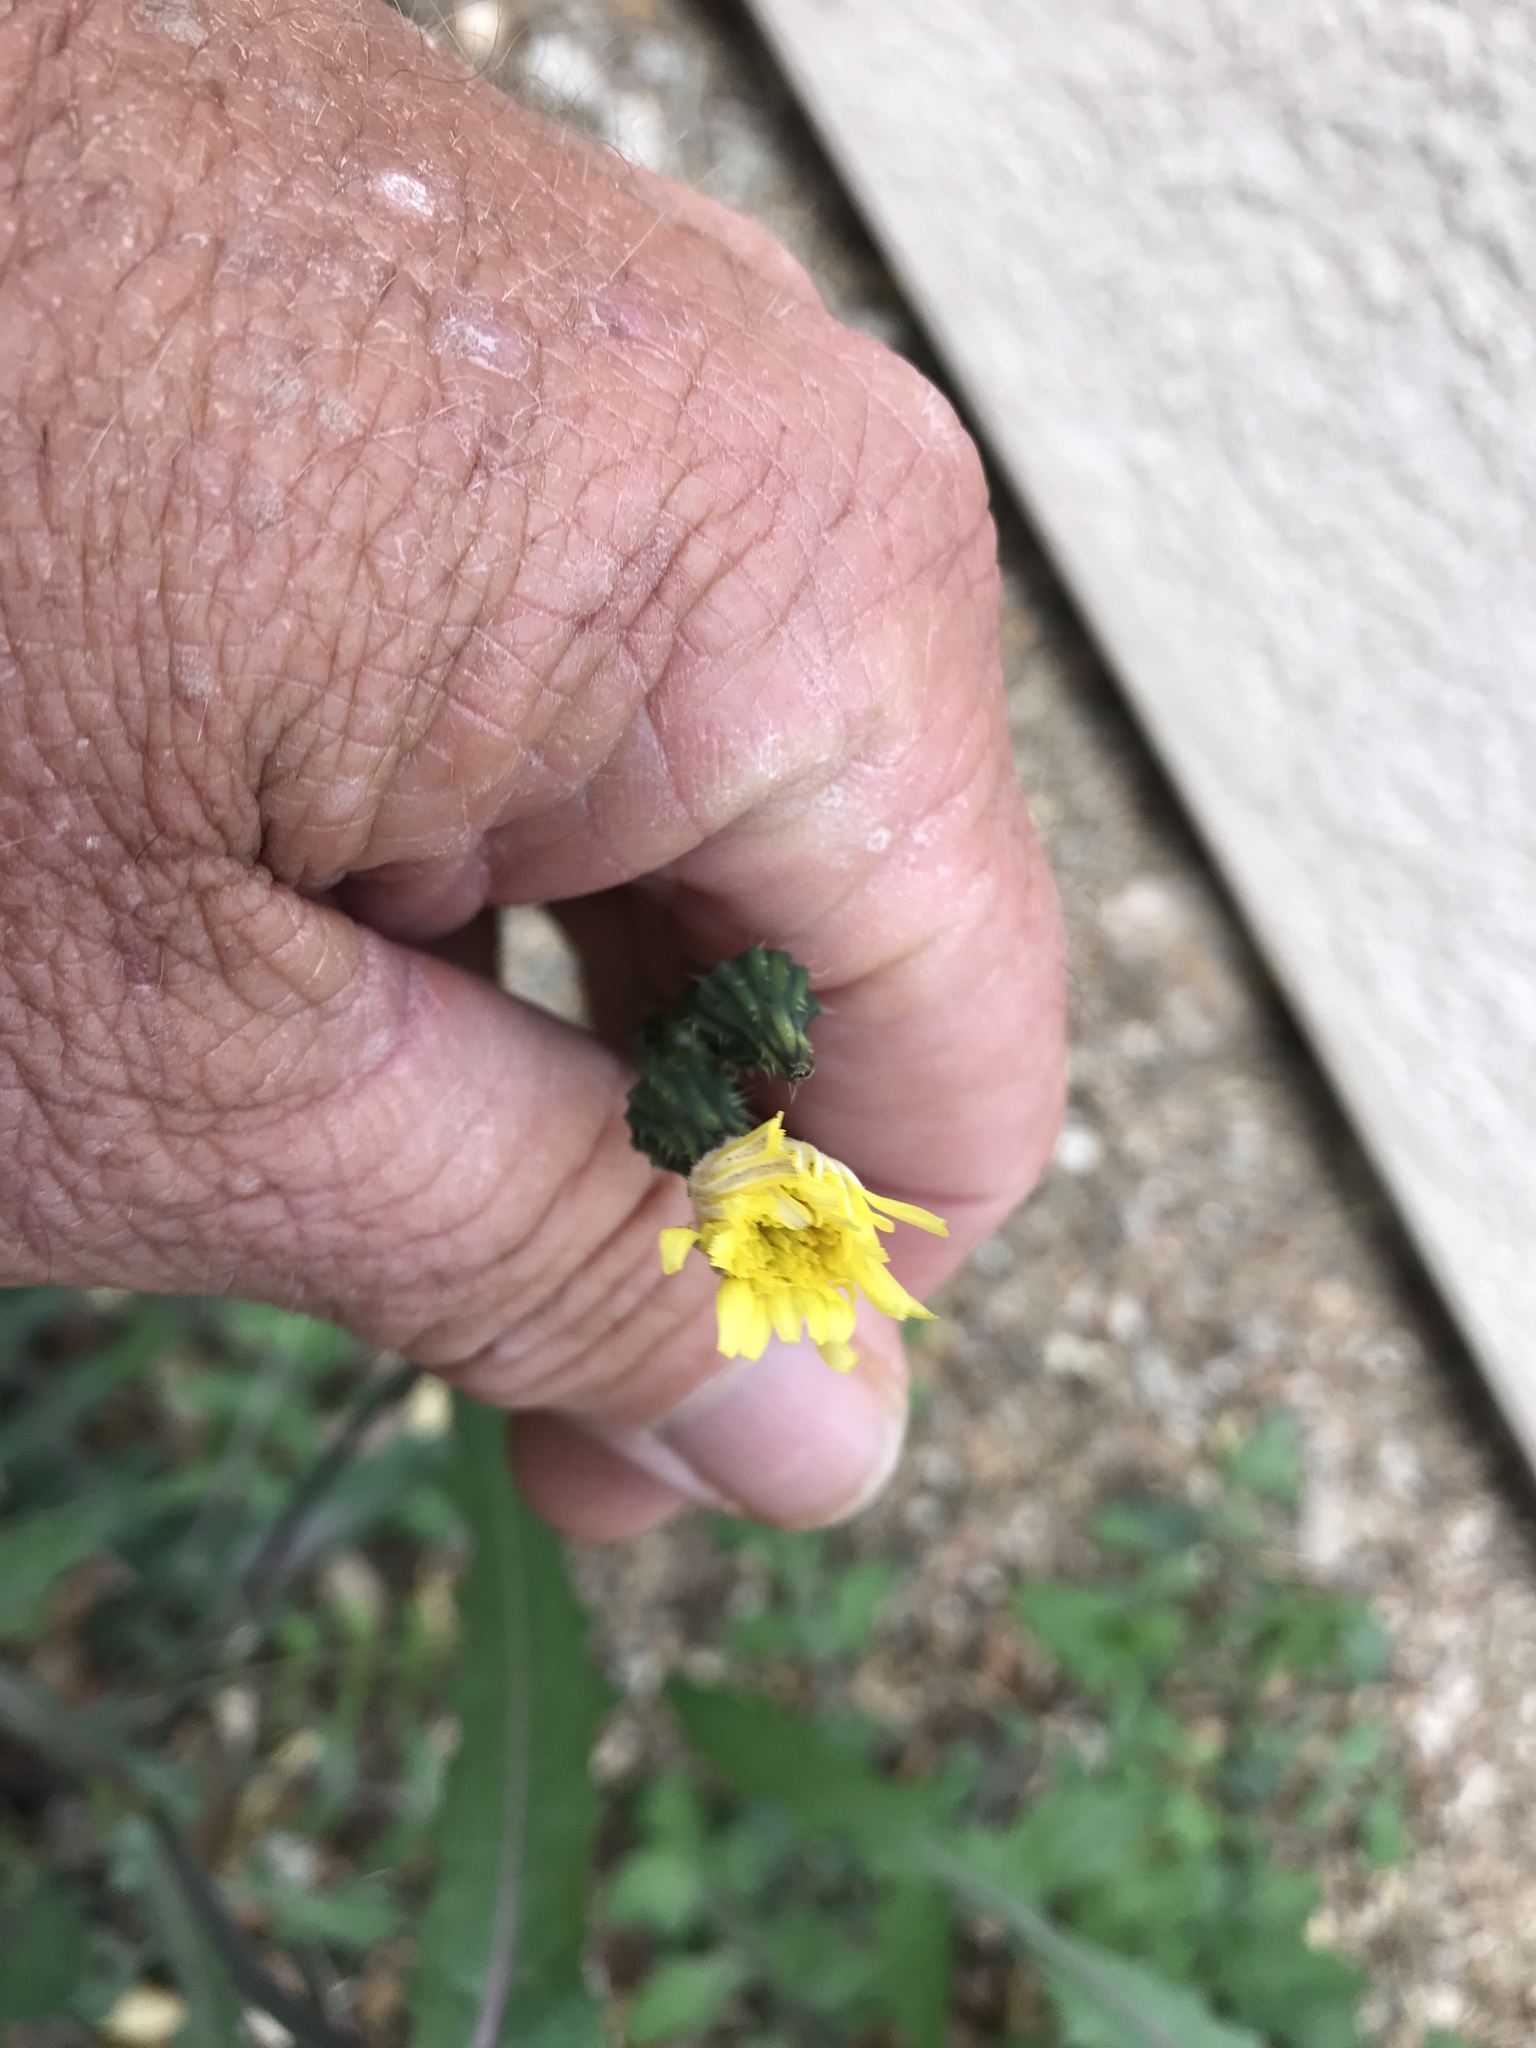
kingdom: Plantae
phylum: Tracheophyta
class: Magnoliopsida
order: Asterales
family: Asteraceae
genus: Sonchus
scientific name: Sonchus oleraceus
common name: Common sowthistle
